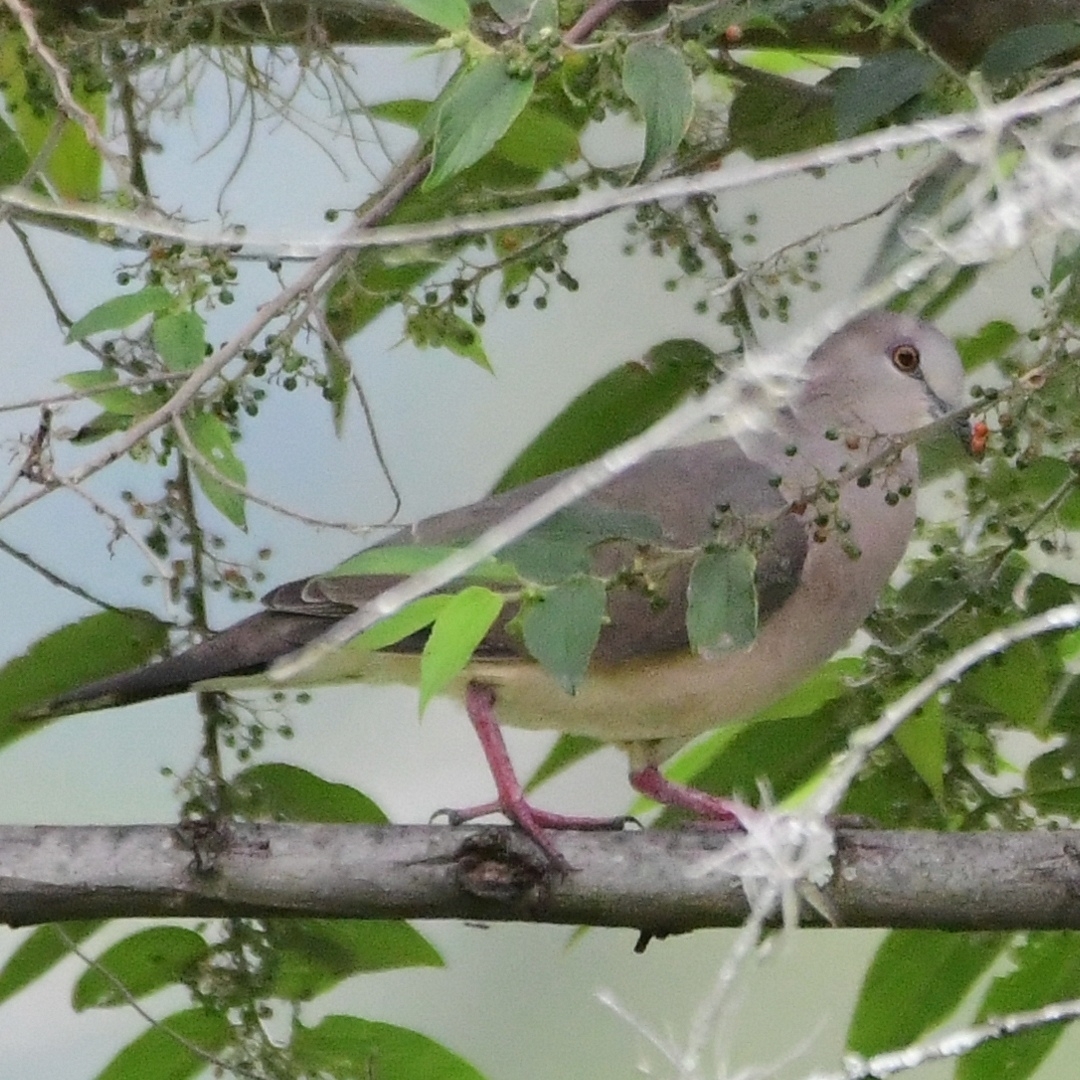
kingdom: Animalia
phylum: Chordata
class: Aves
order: Columbiformes
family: Columbidae
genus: Leptotila
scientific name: Leptotila verreauxi
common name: White-tipped dove
